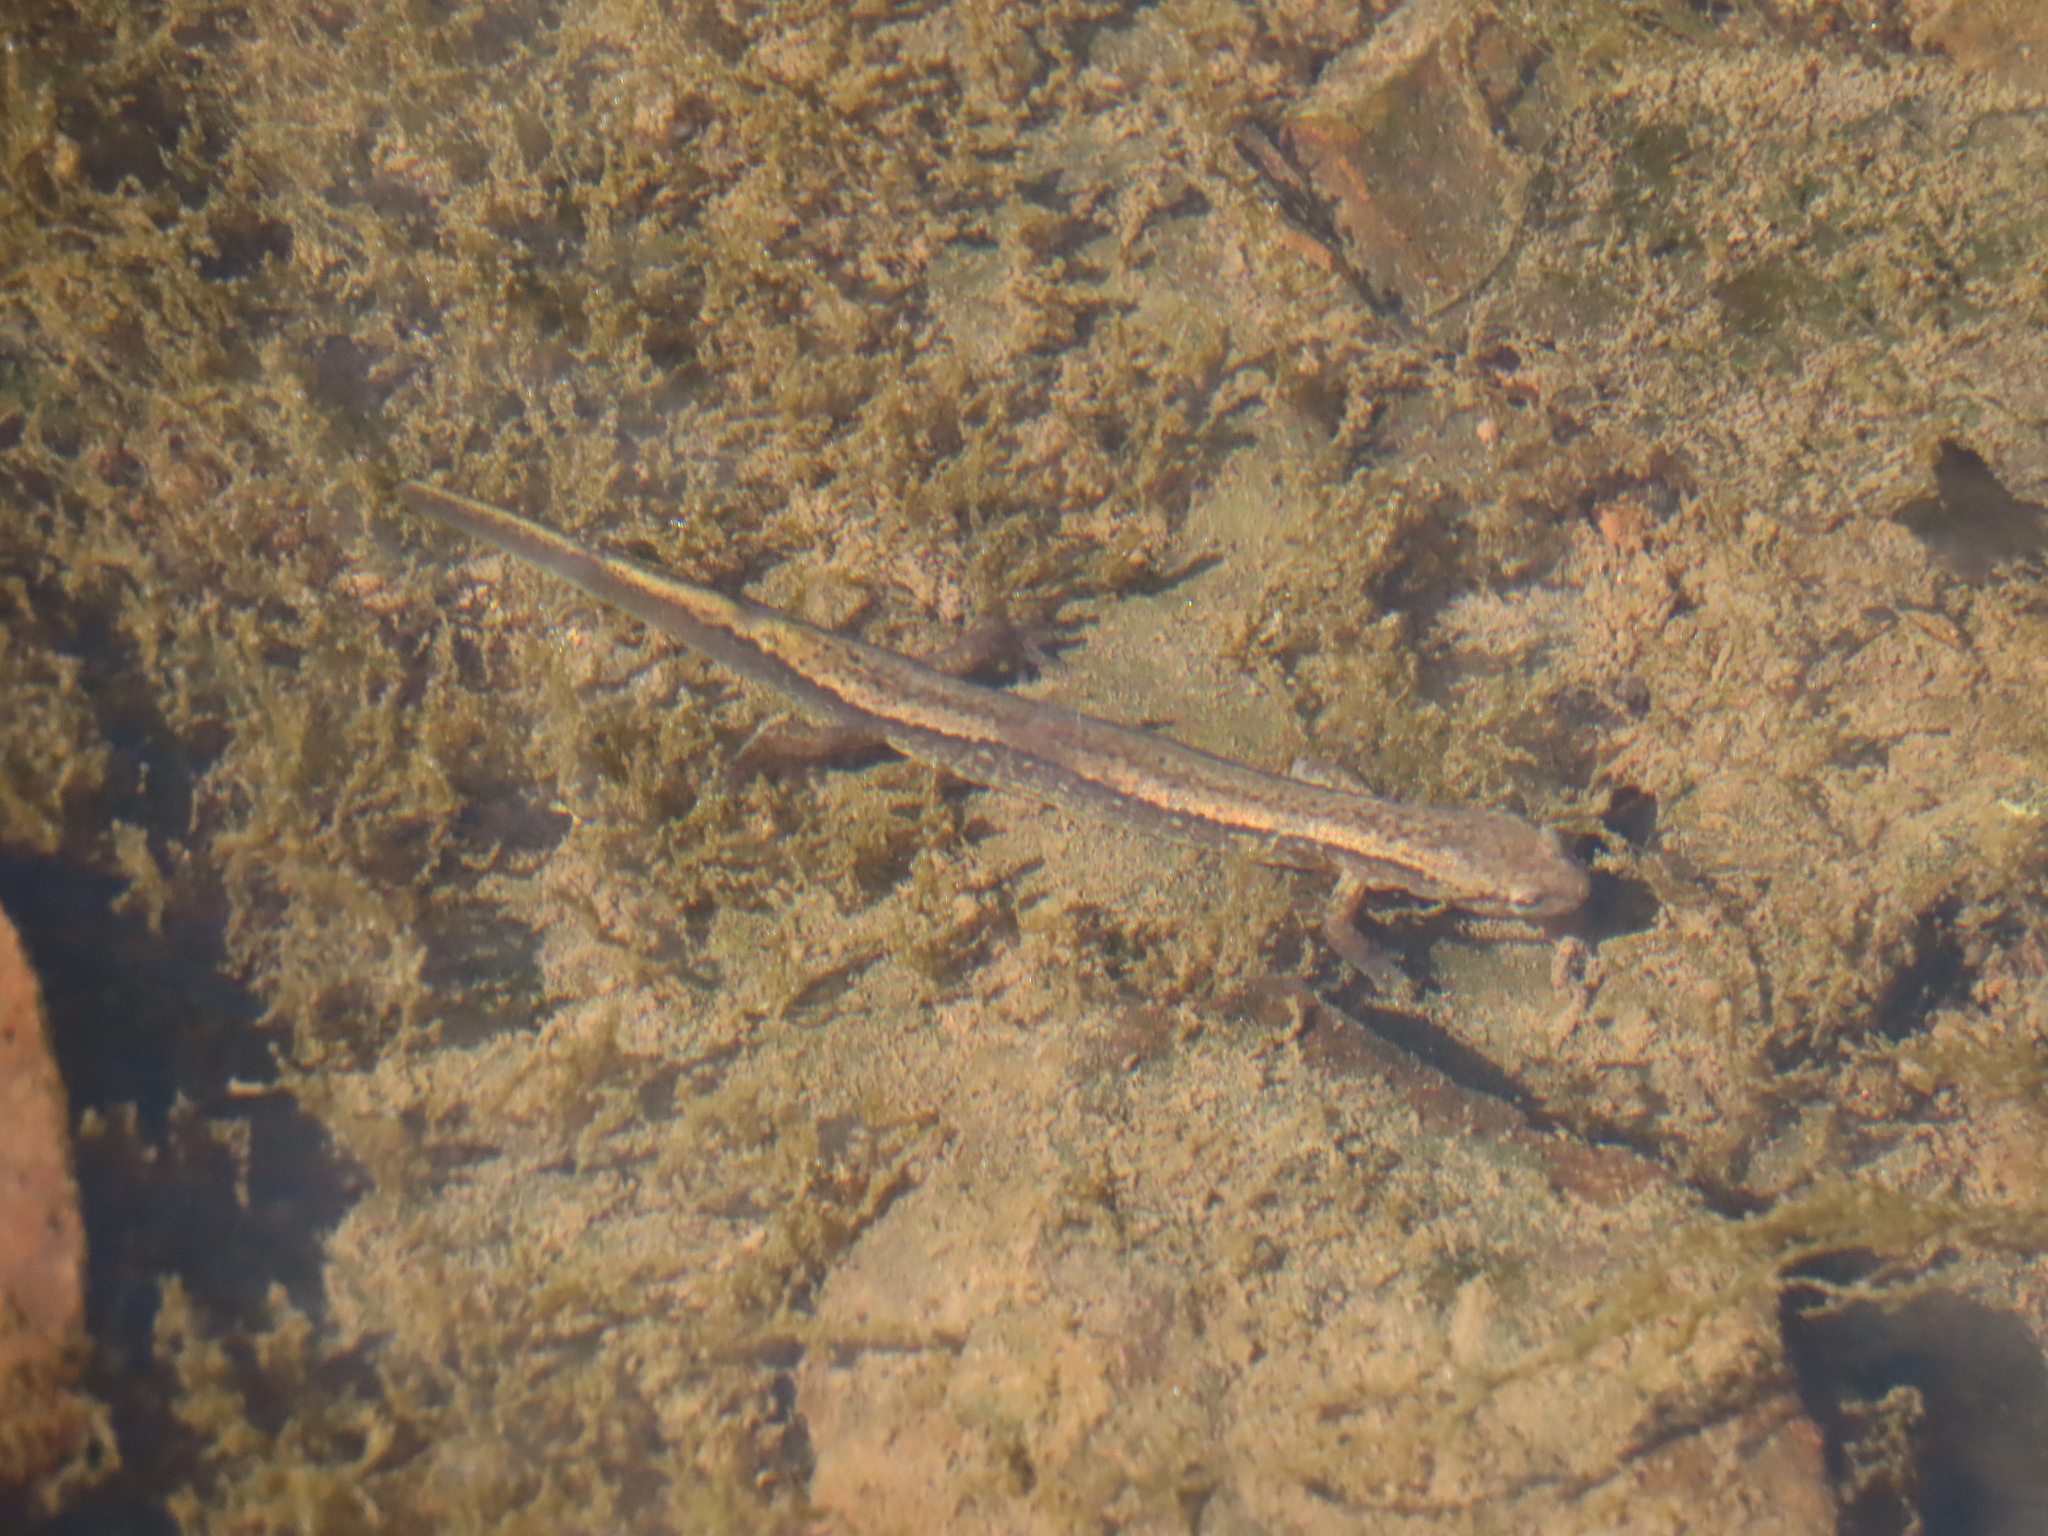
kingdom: Animalia
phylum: Chordata
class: Amphibia
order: Caudata
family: Plethodontidae
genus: Eurycea
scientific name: Eurycea bislineata
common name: Northern two-lined salamander
